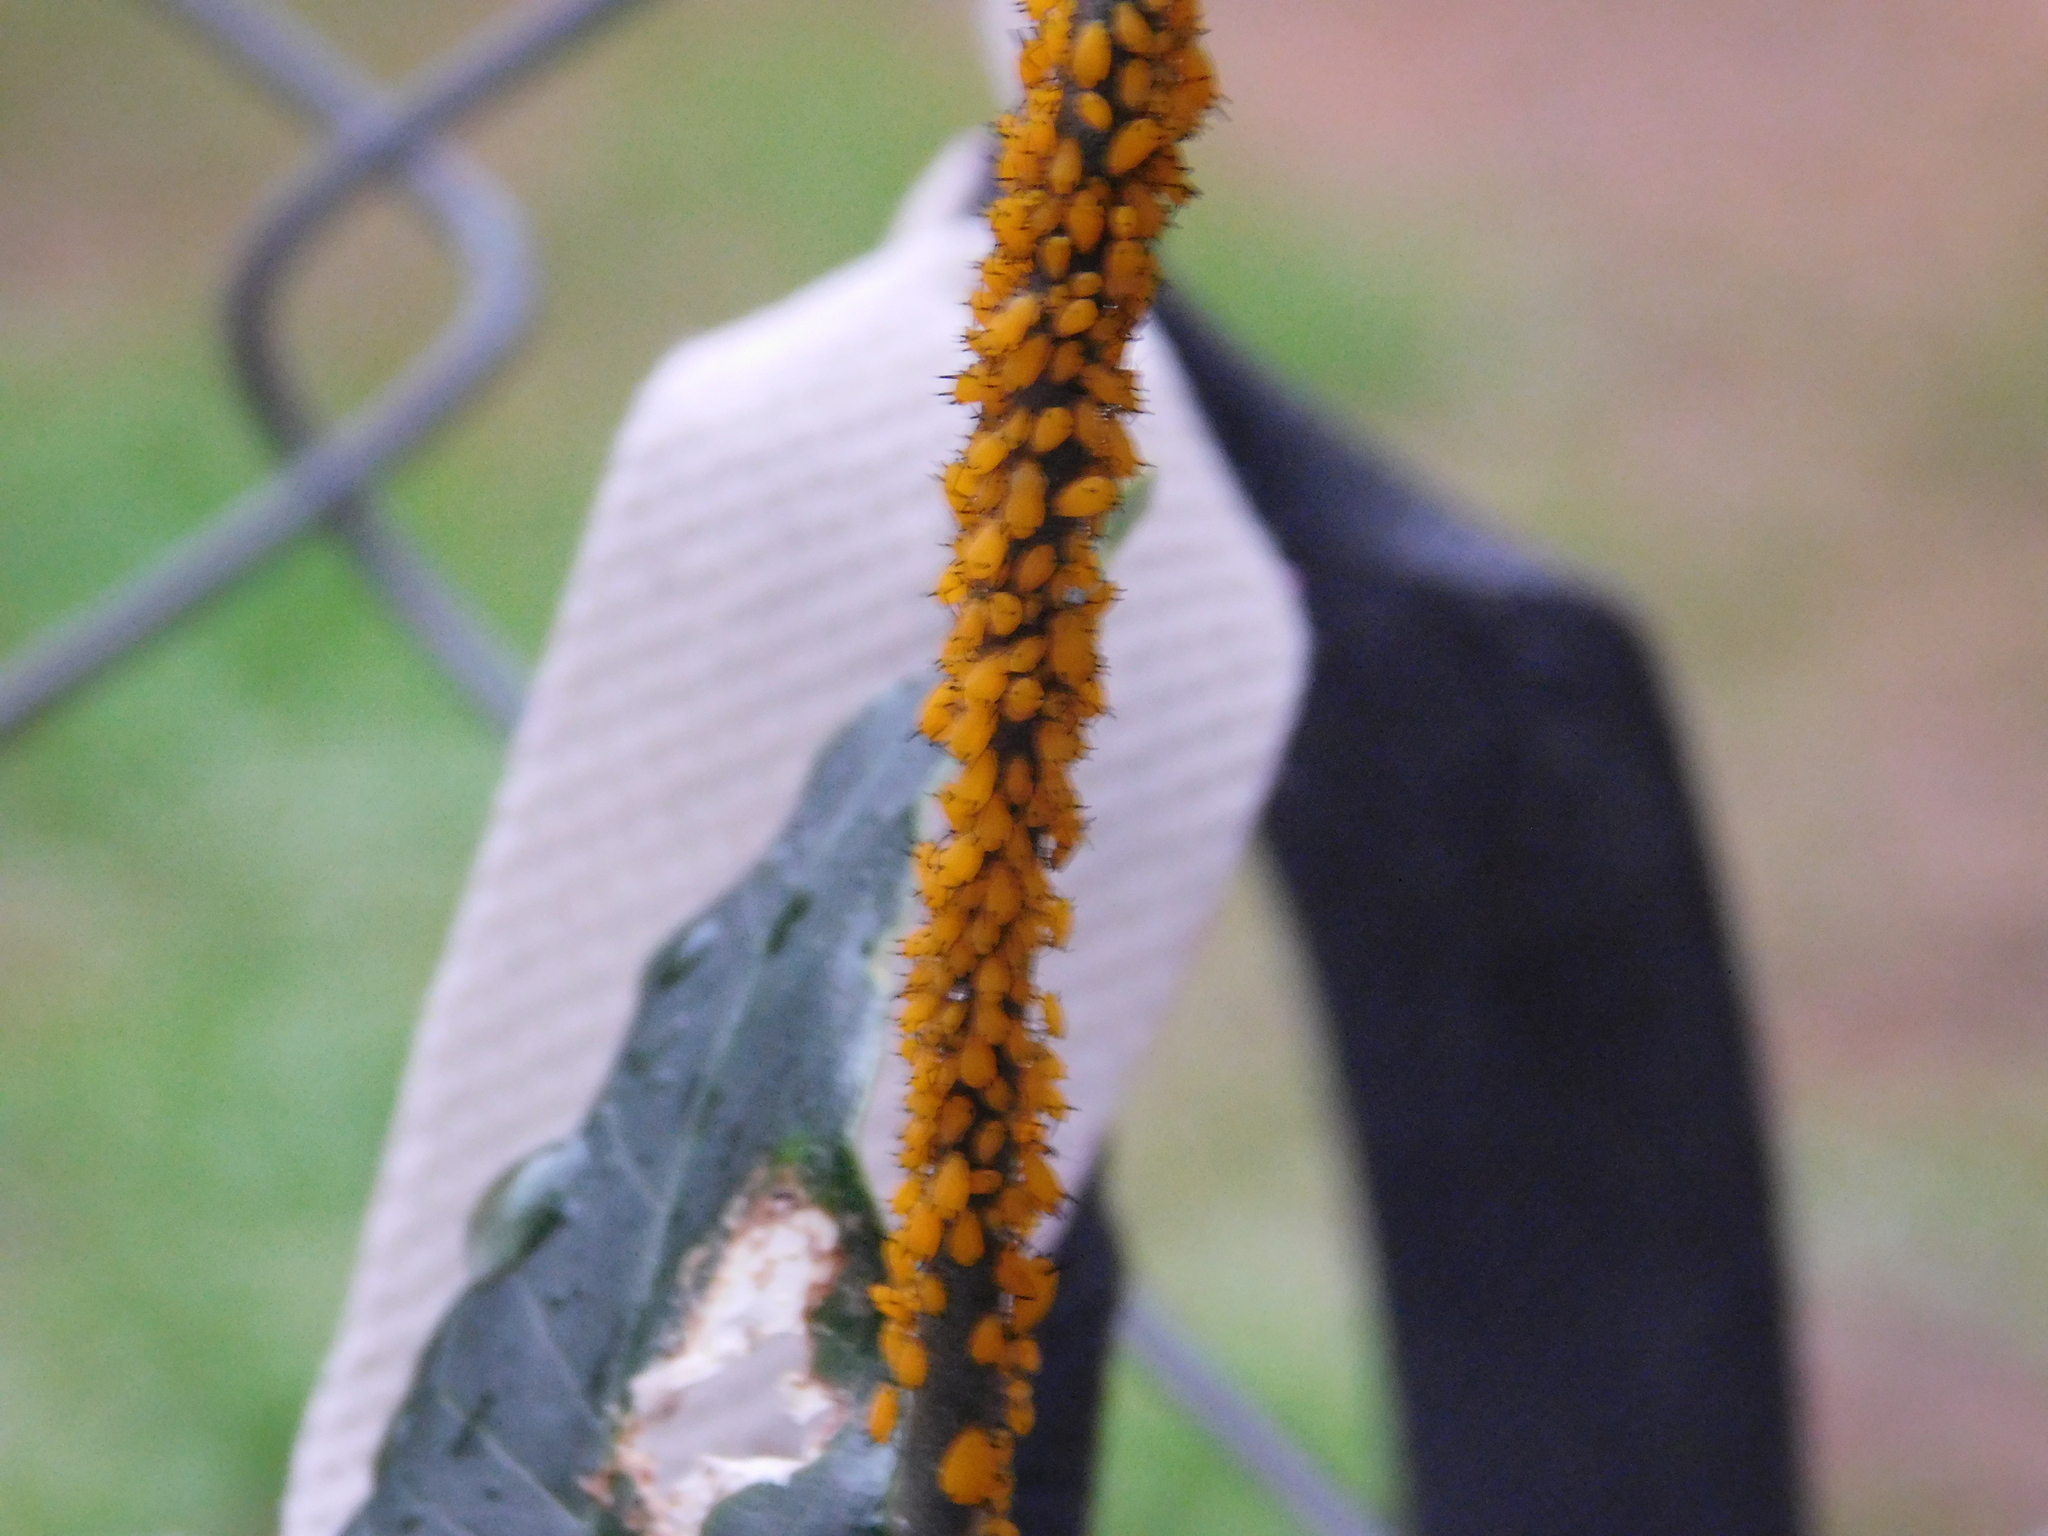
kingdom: Animalia
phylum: Arthropoda
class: Insecta
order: Hemiptera
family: Aphididae
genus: Aphis
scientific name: Aphis nerii
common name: Oleander aphid
